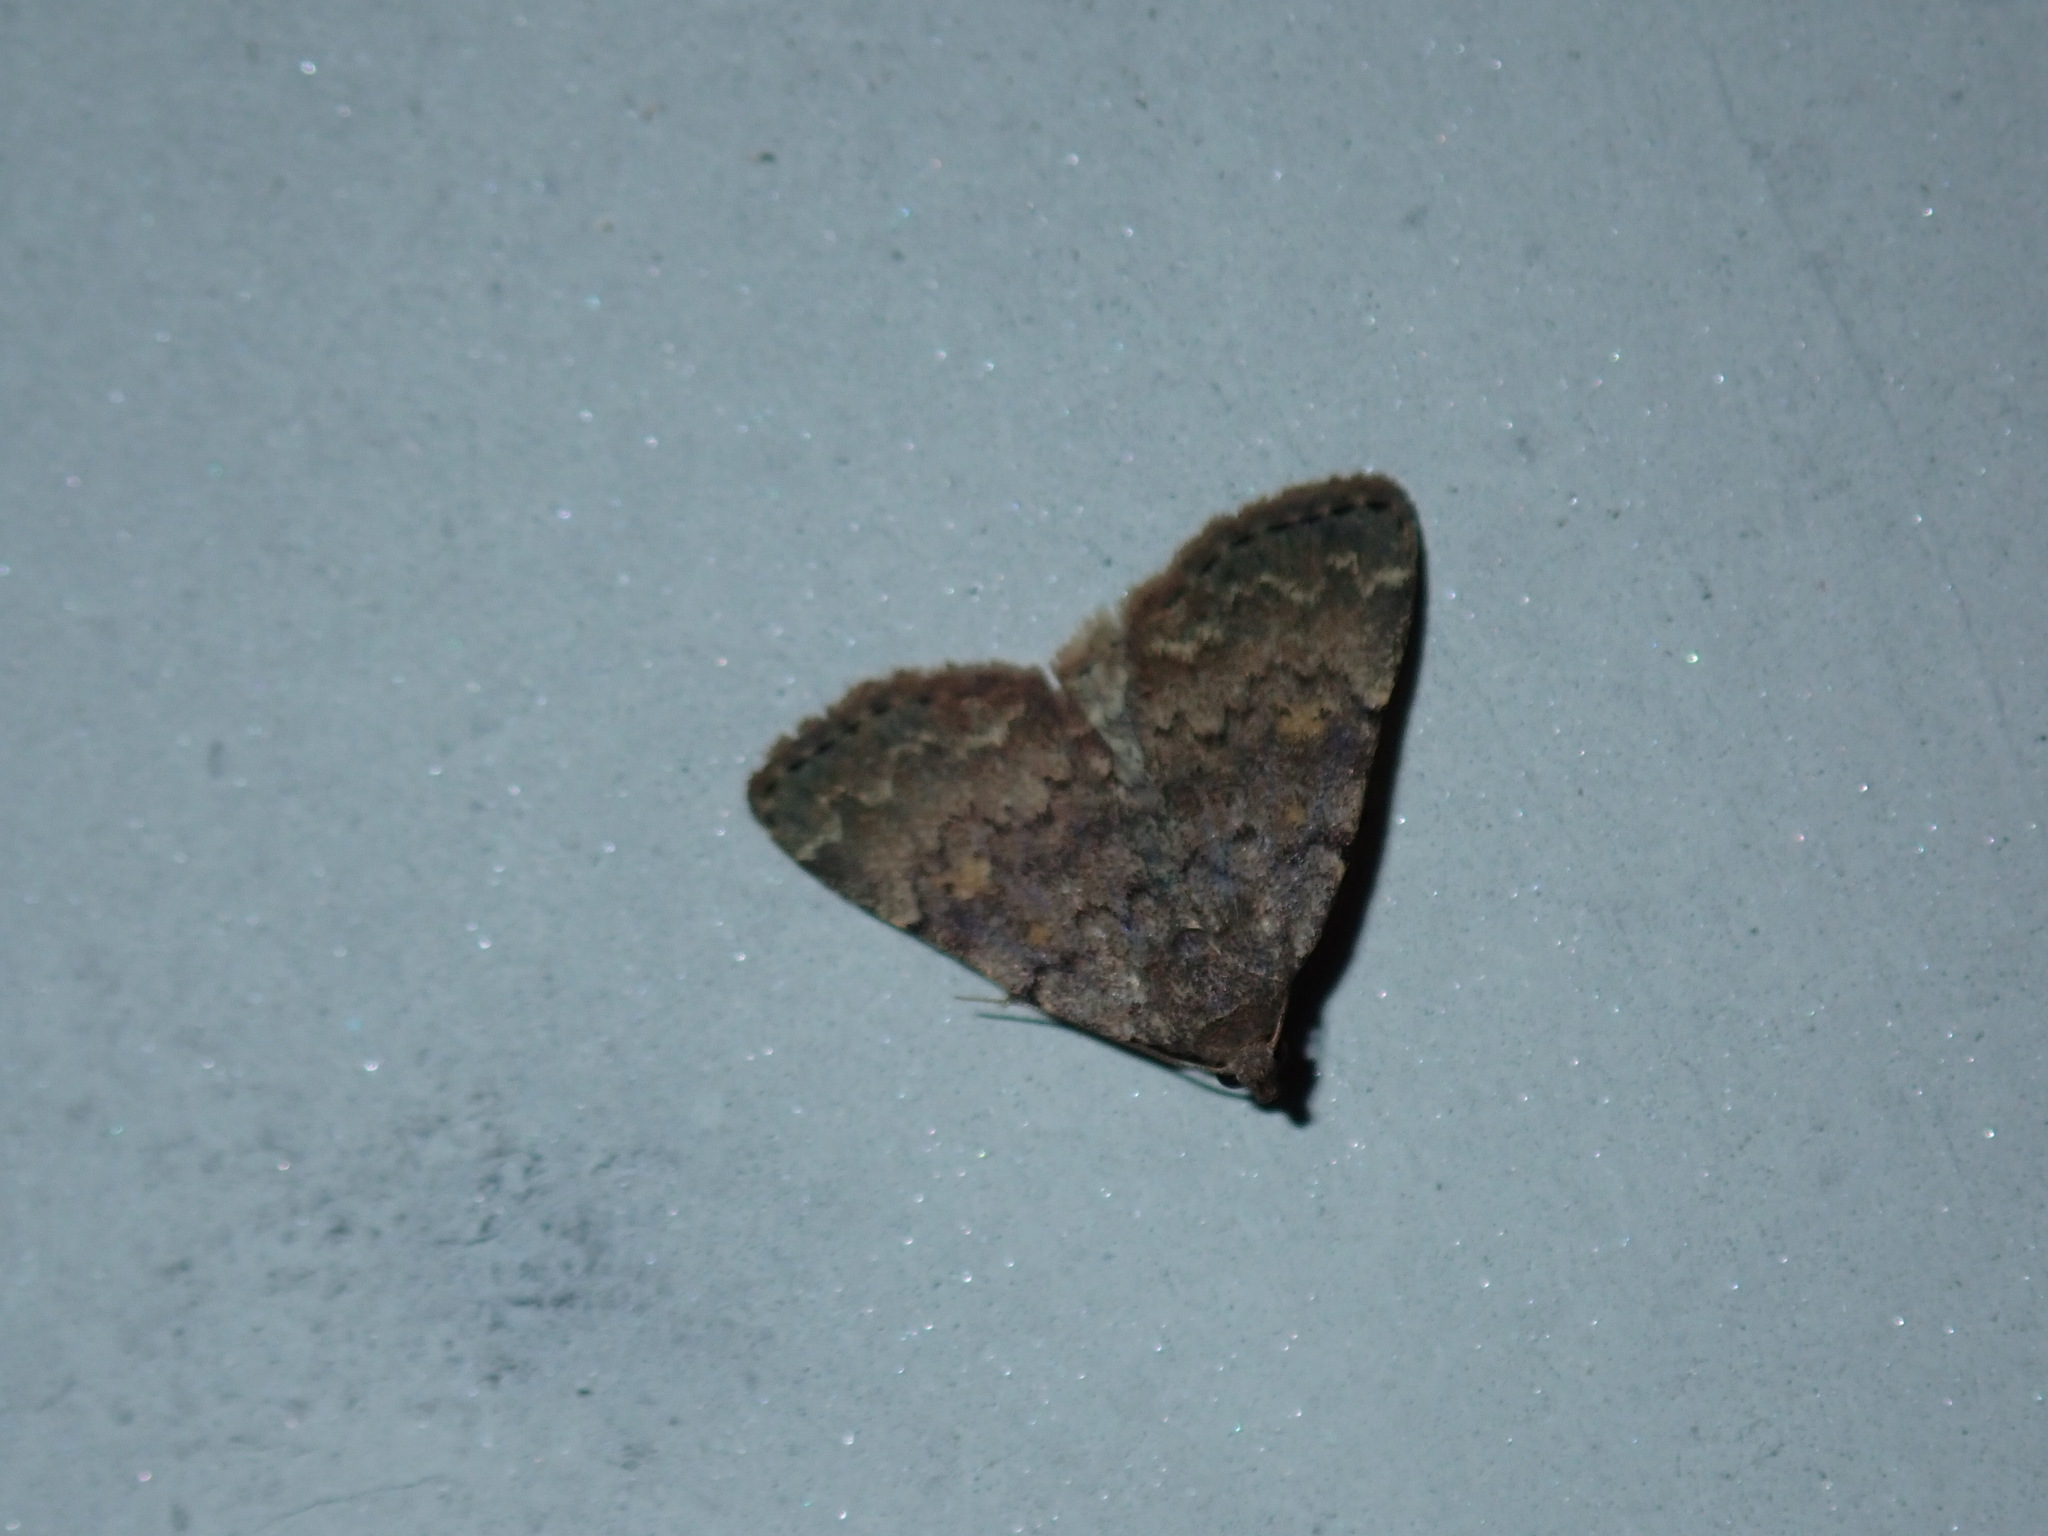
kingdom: Animalia
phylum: Arthropoda
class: Insecta
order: Lepidoptera
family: Erebidae
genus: Idia
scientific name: Idia aemula
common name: Common idia moth
